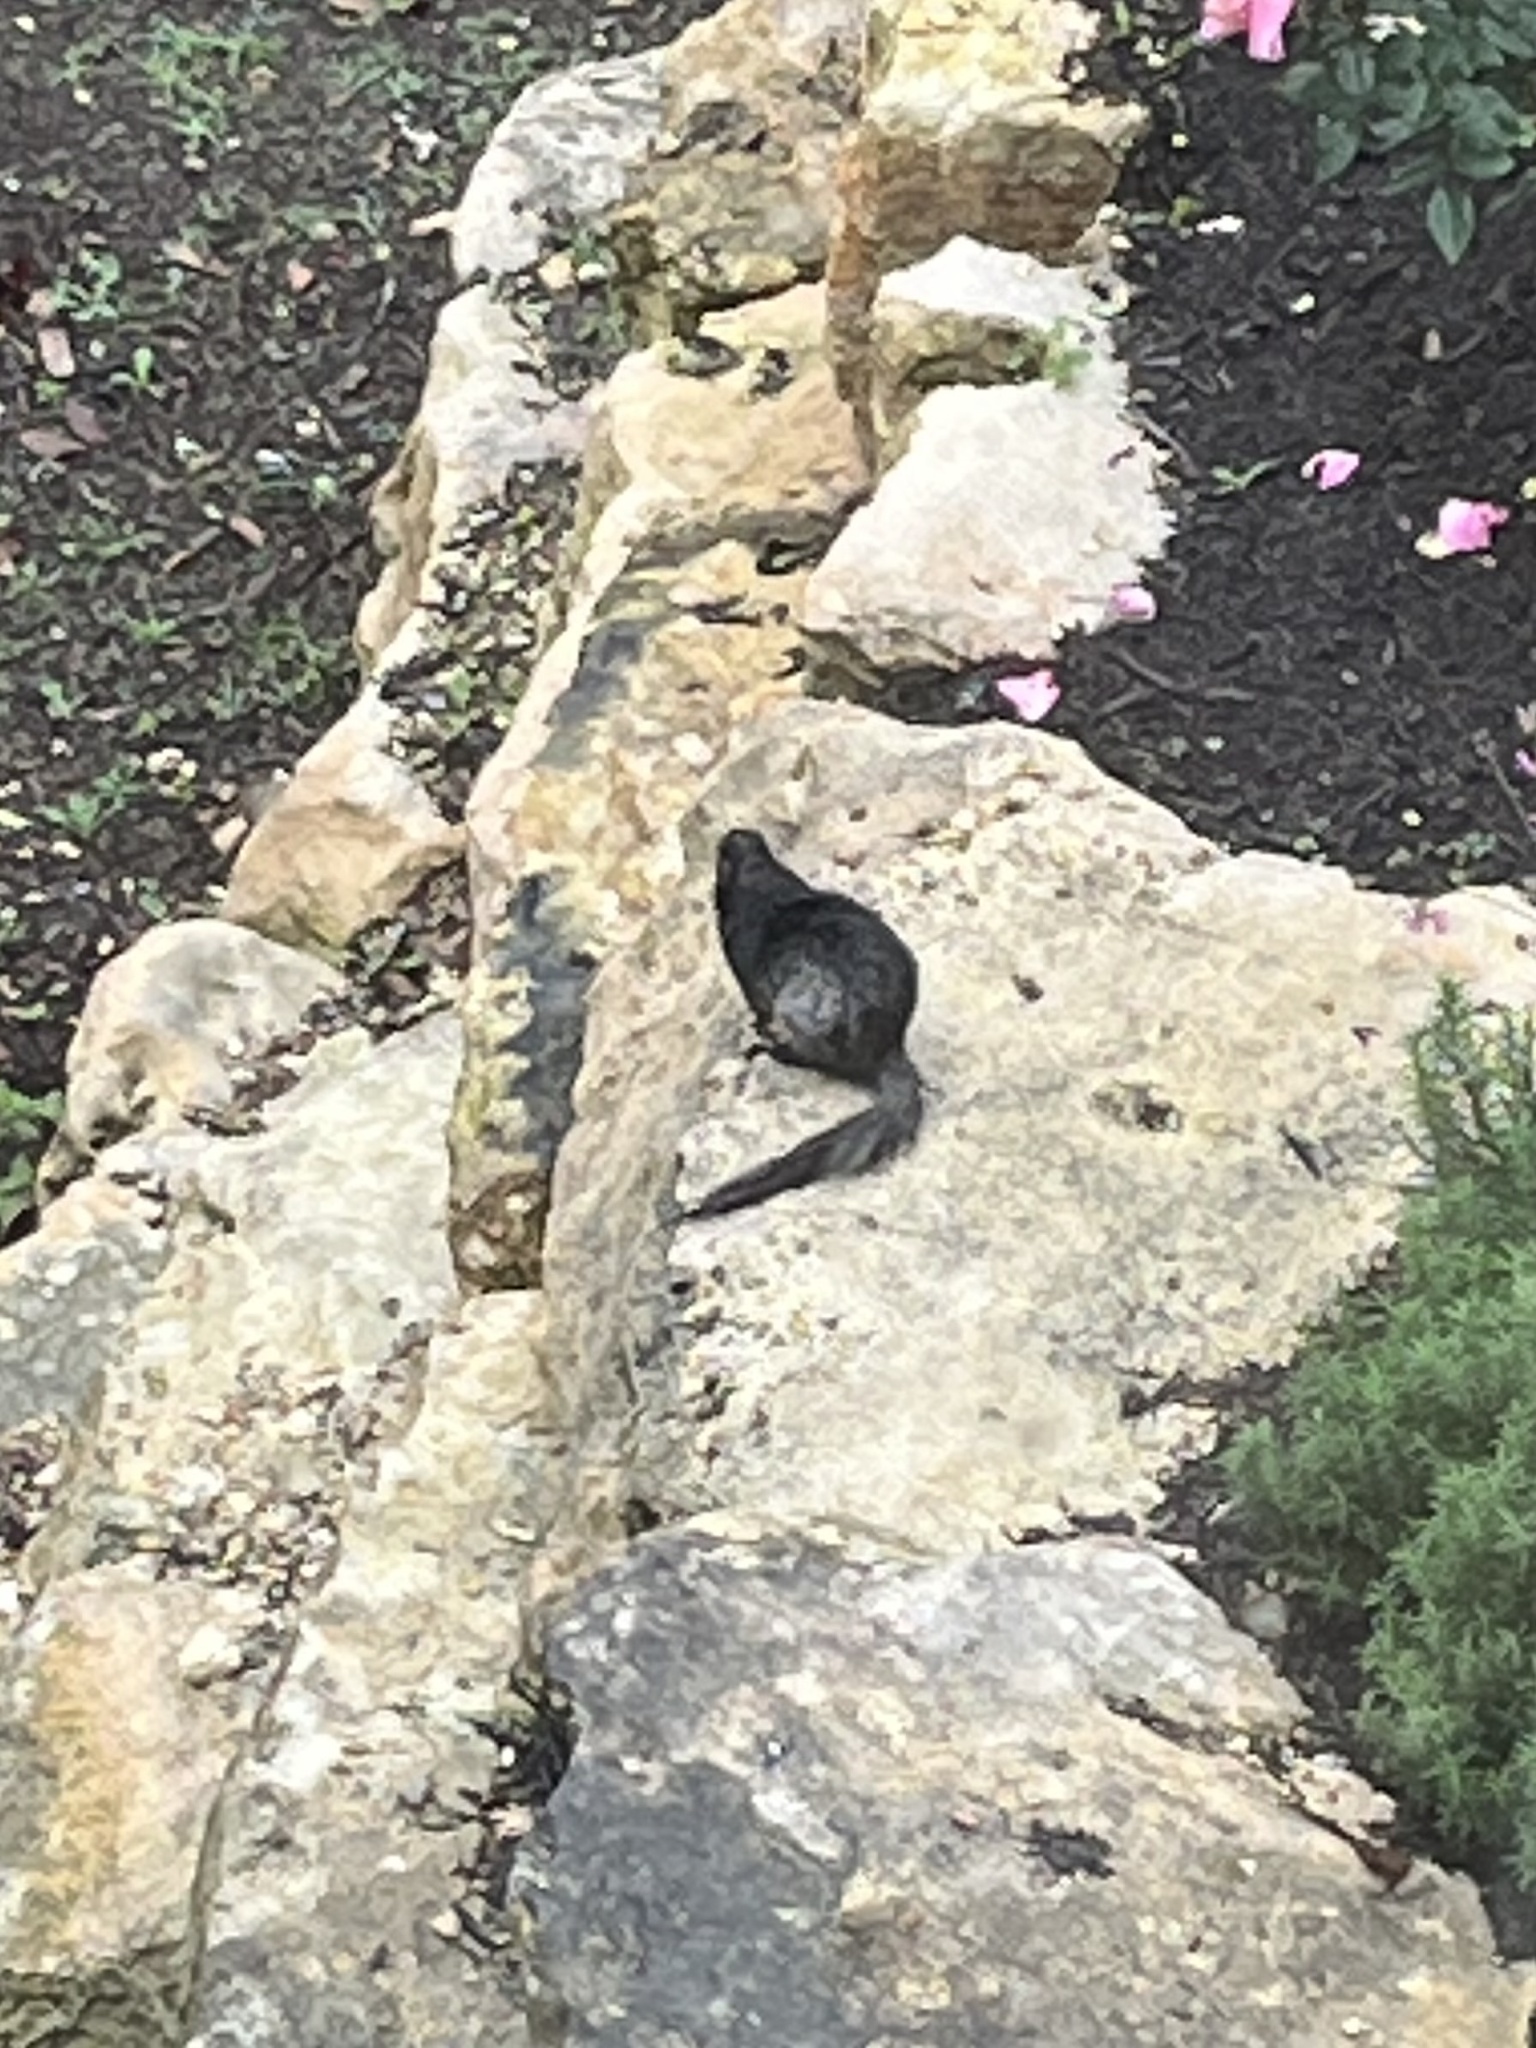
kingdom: Animalia
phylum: Chordata
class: Mammalia
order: Rodentia
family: Sciuridae
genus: Otospermophilus
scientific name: Otospermophilus variegatus
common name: Rock squirrel
